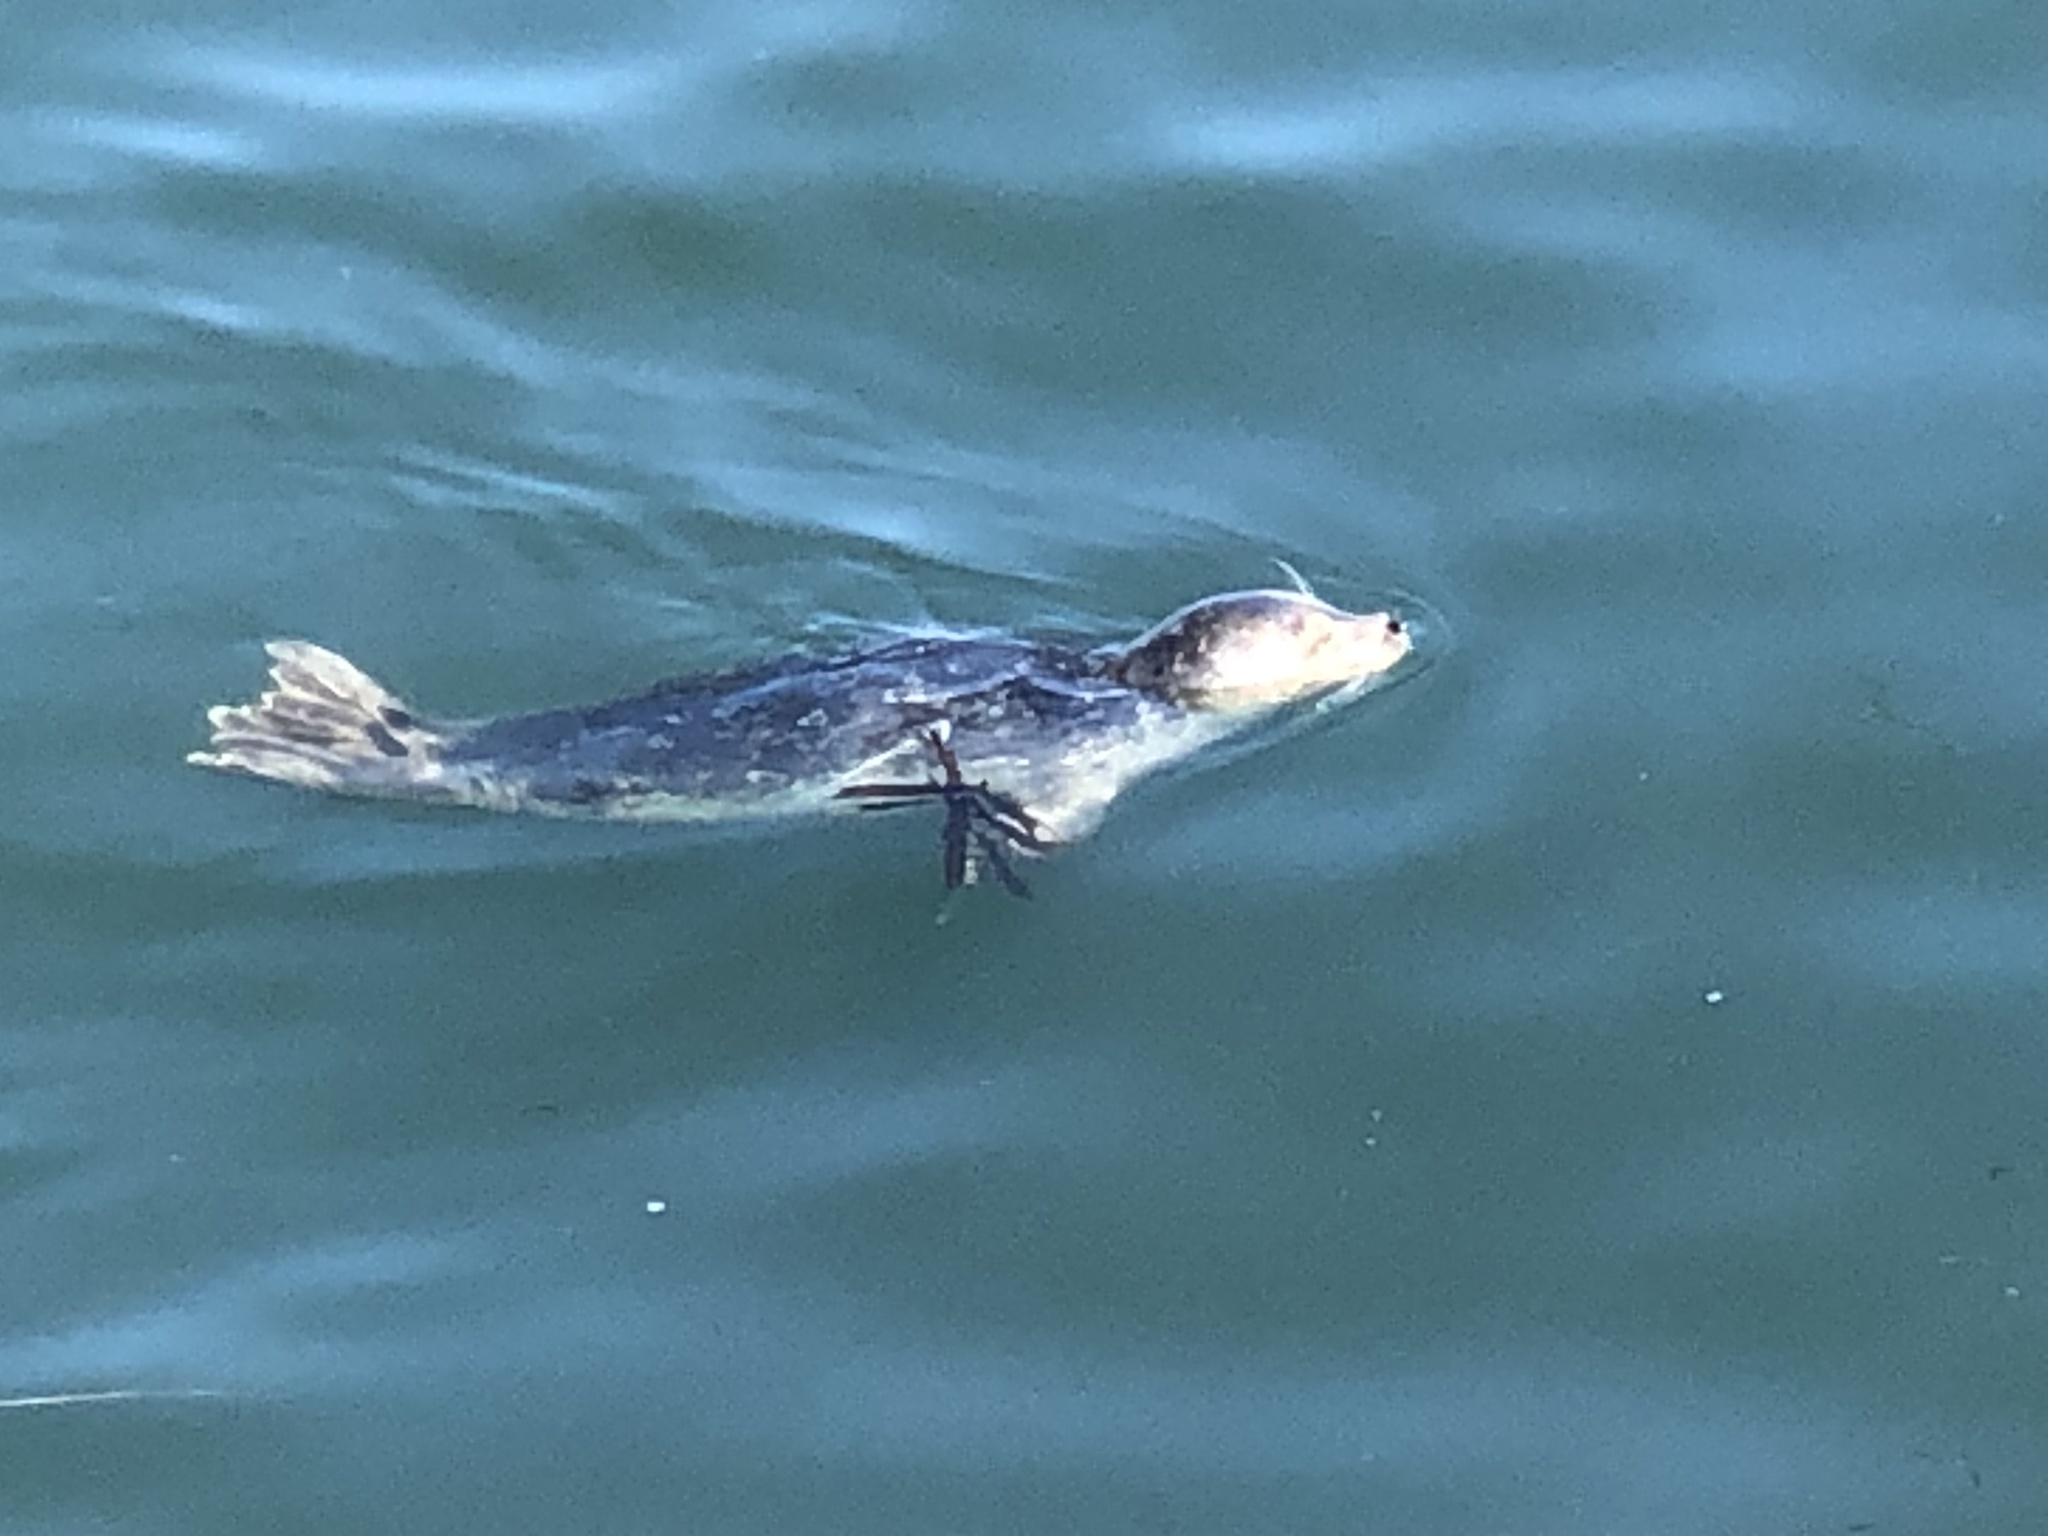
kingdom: Animalia
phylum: Chordata
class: Mammalia
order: Carnivora
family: Phocidae
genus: Phoca
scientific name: Phoca vitulina
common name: Harbor seal
